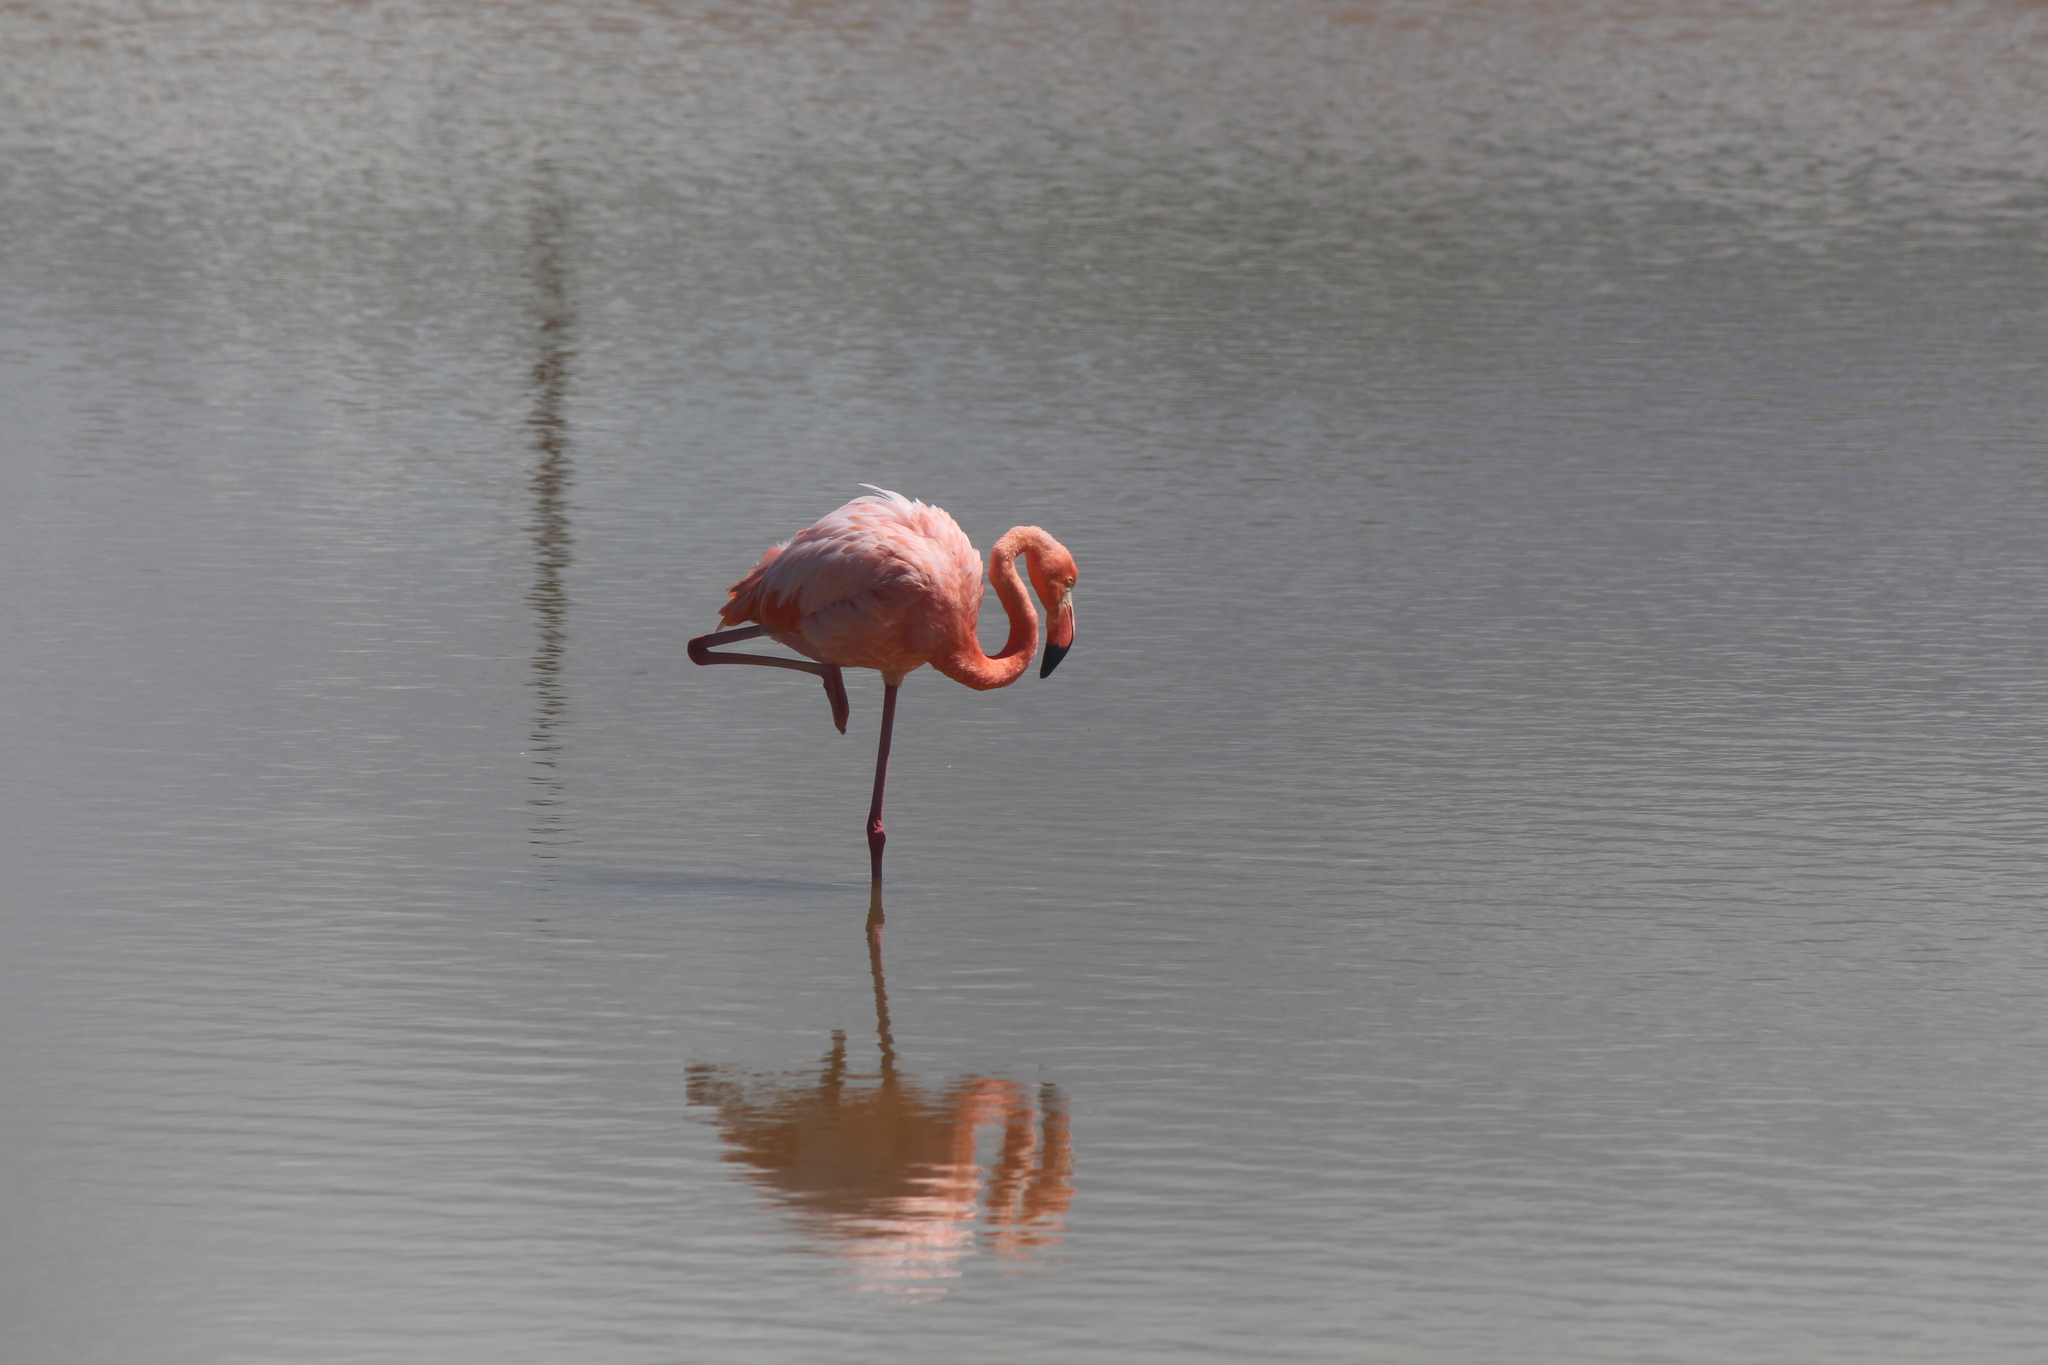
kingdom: Animalia
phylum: Chordata
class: Aves
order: Phoenicopteriformes
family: Phoenicopteridae
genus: Phoenicopterus
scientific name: Phoenicopterus ruber
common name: American flamingo
